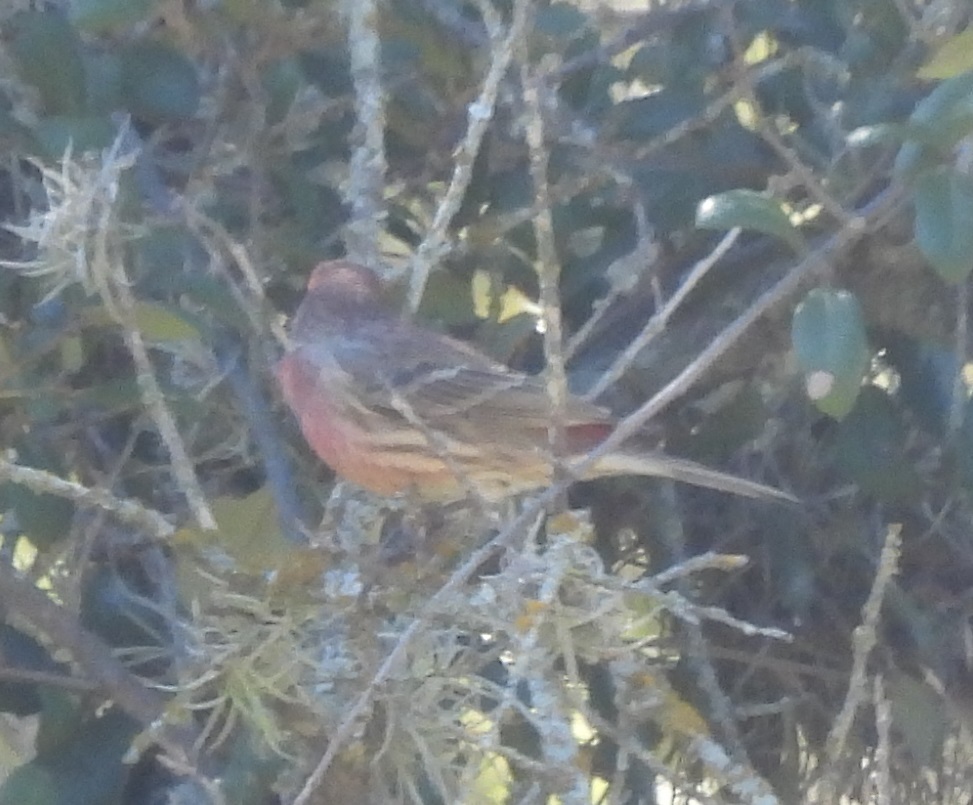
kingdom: Animalia
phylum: Chordata
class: Aves
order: Passeriformes
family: Fringillidae
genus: Haemorhous
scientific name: Haemorhous mexicanus
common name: House finch
